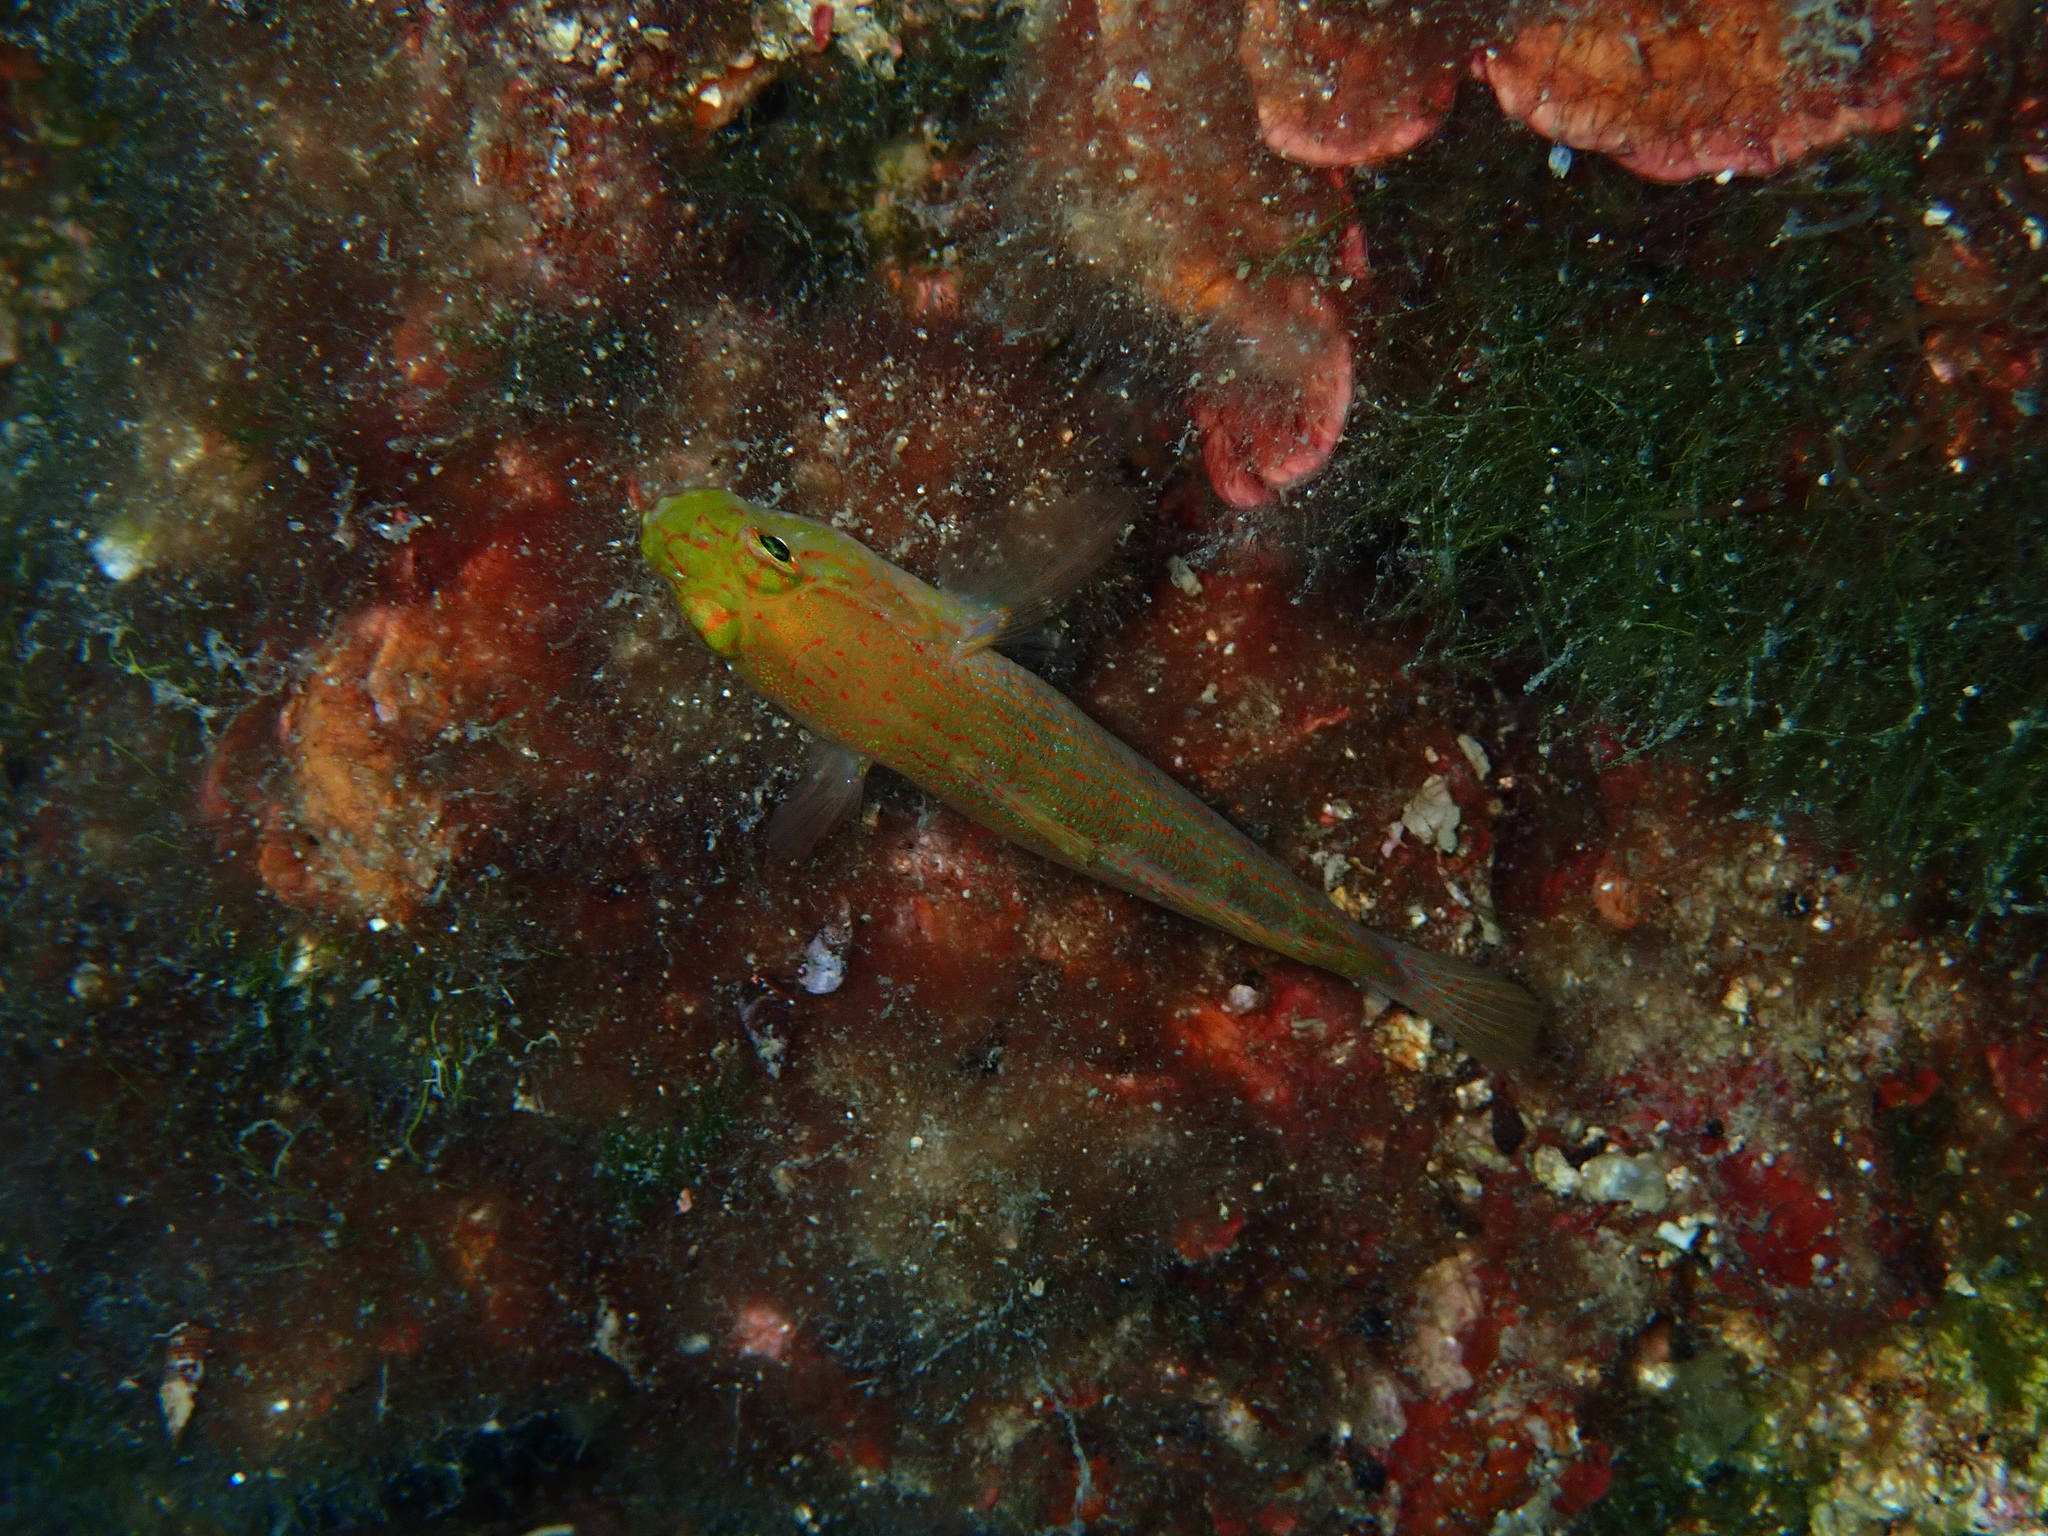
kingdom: Animalia
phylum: Chordata
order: Perciformes
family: Gobiidae
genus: Gobius
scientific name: Gobius auratus
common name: Golden goby
